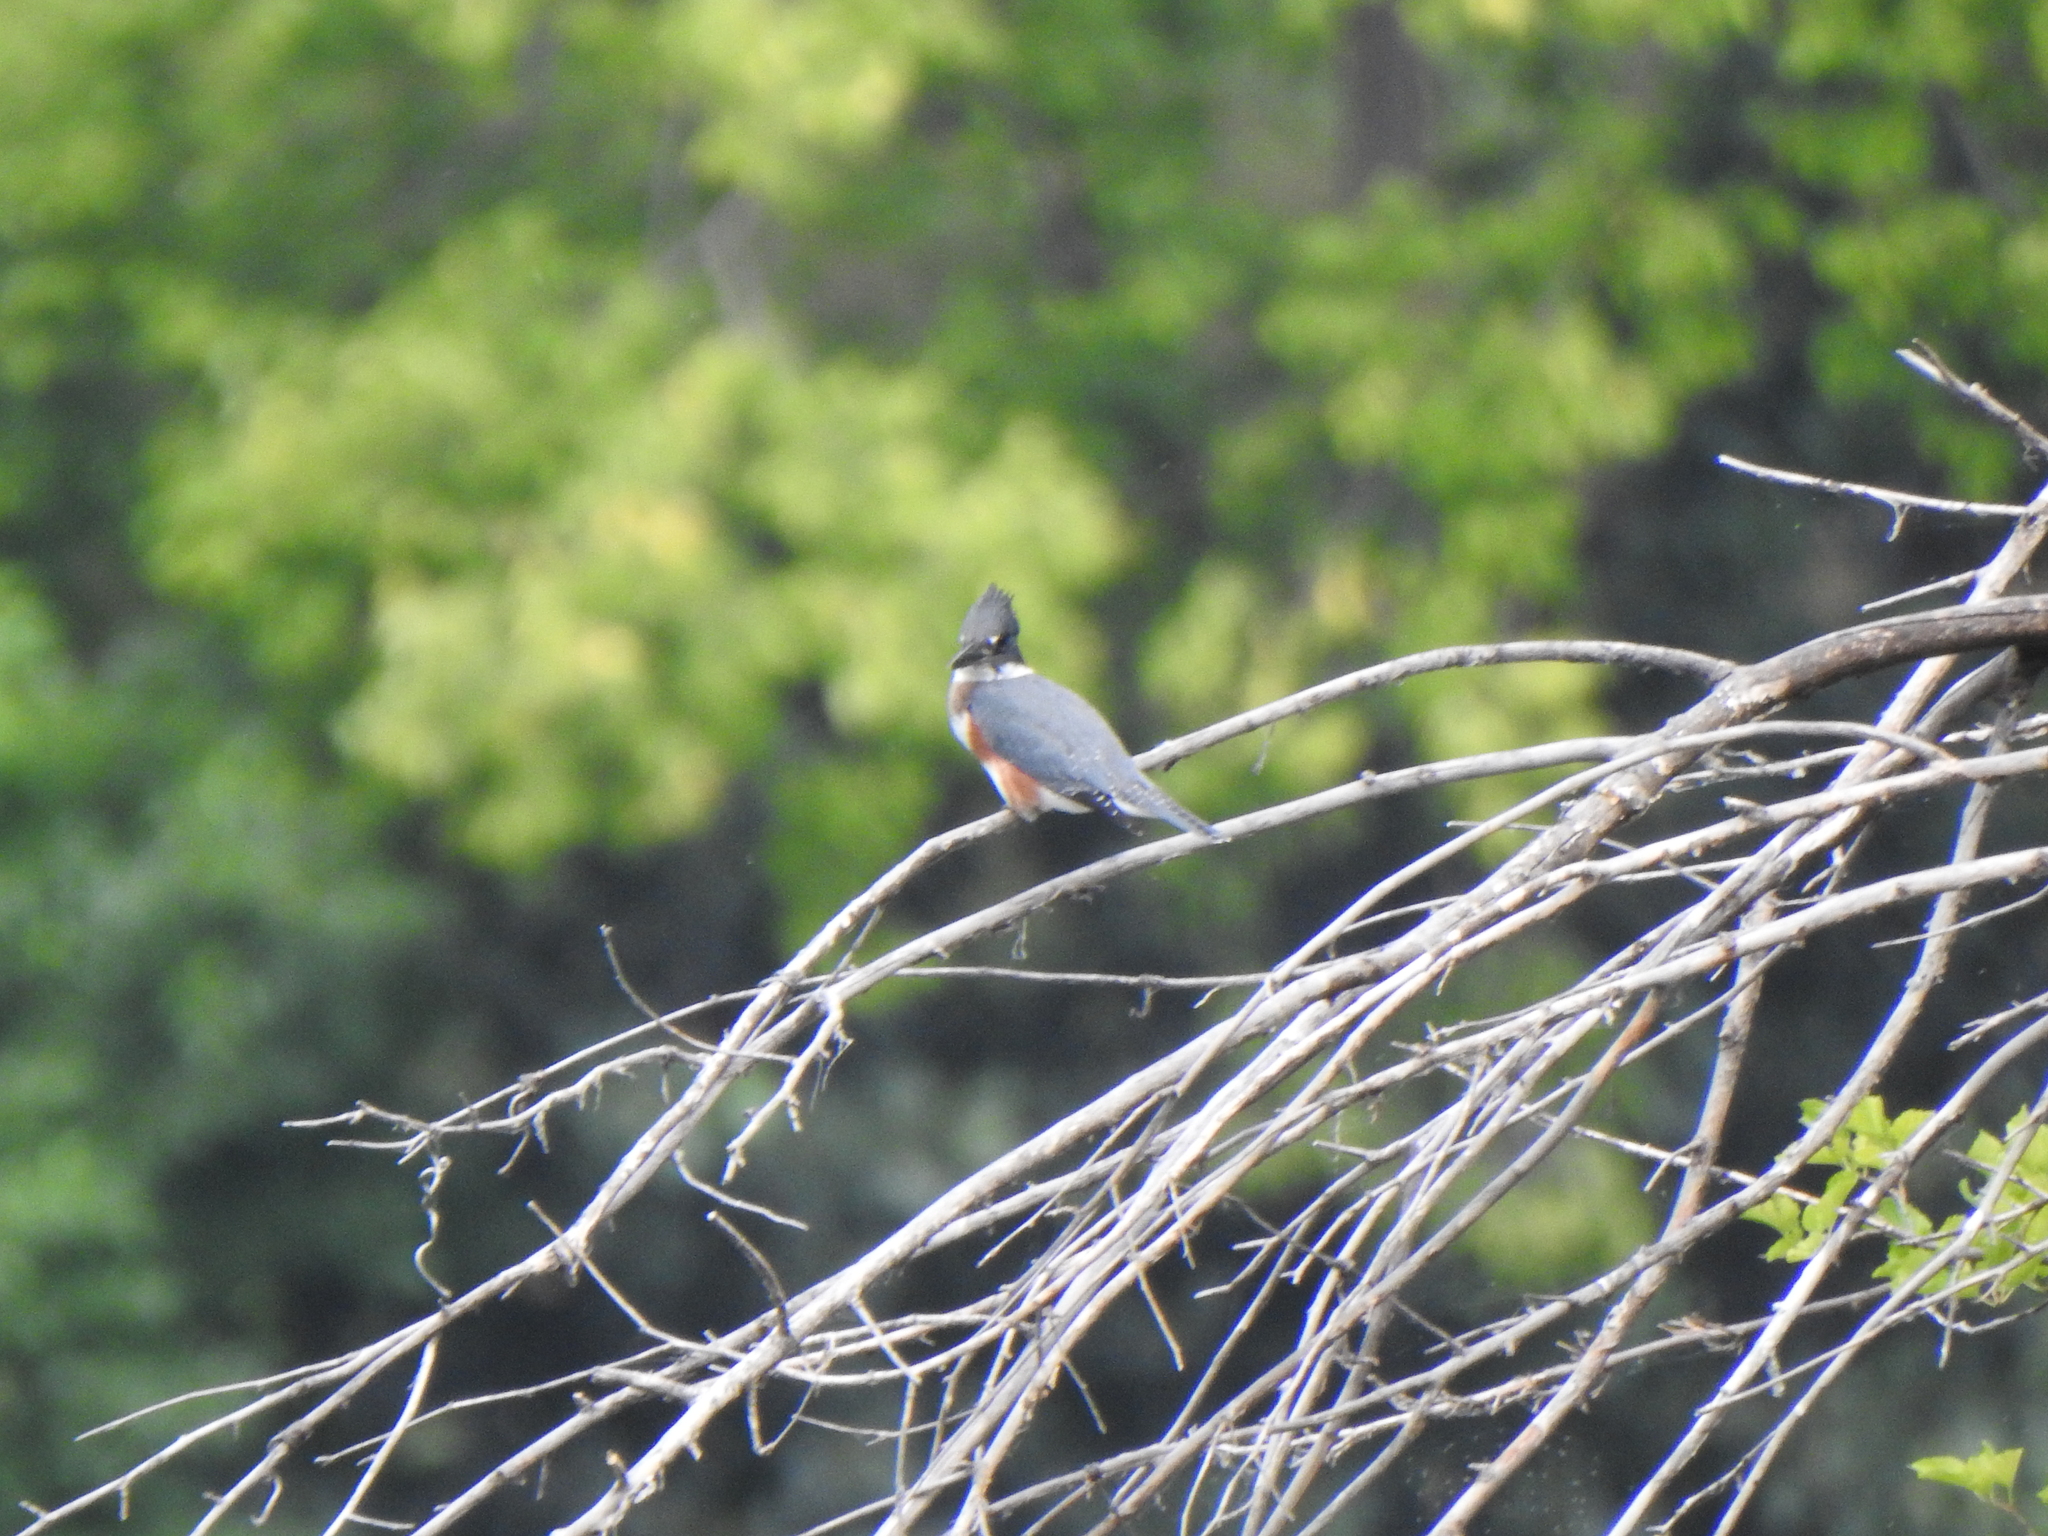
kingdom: Animalia
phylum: Chordata
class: Aves
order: Coraciiformes
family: Alcedinidae
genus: Megaceryle
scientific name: Megaceryle alcyon
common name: Belted kingfisher
